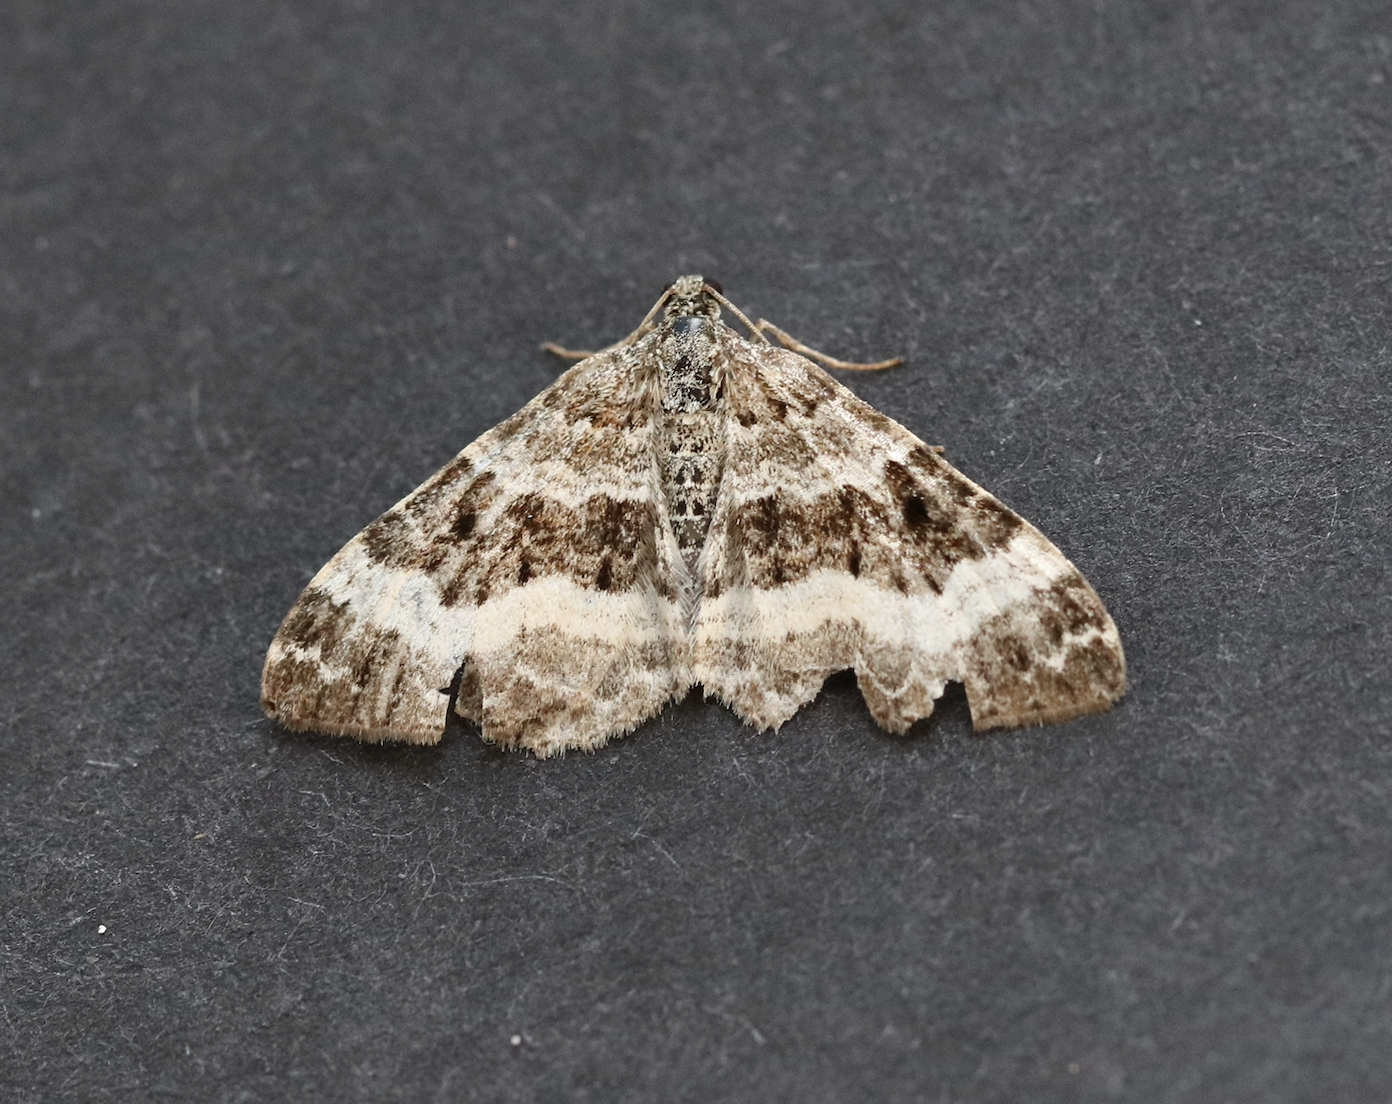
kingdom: Animalia
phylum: Arthropoda
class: Insecta
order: Lepidoptera
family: Geometridae
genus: Epirrhoe
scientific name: Epirrhoe alternata
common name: Common carpet
